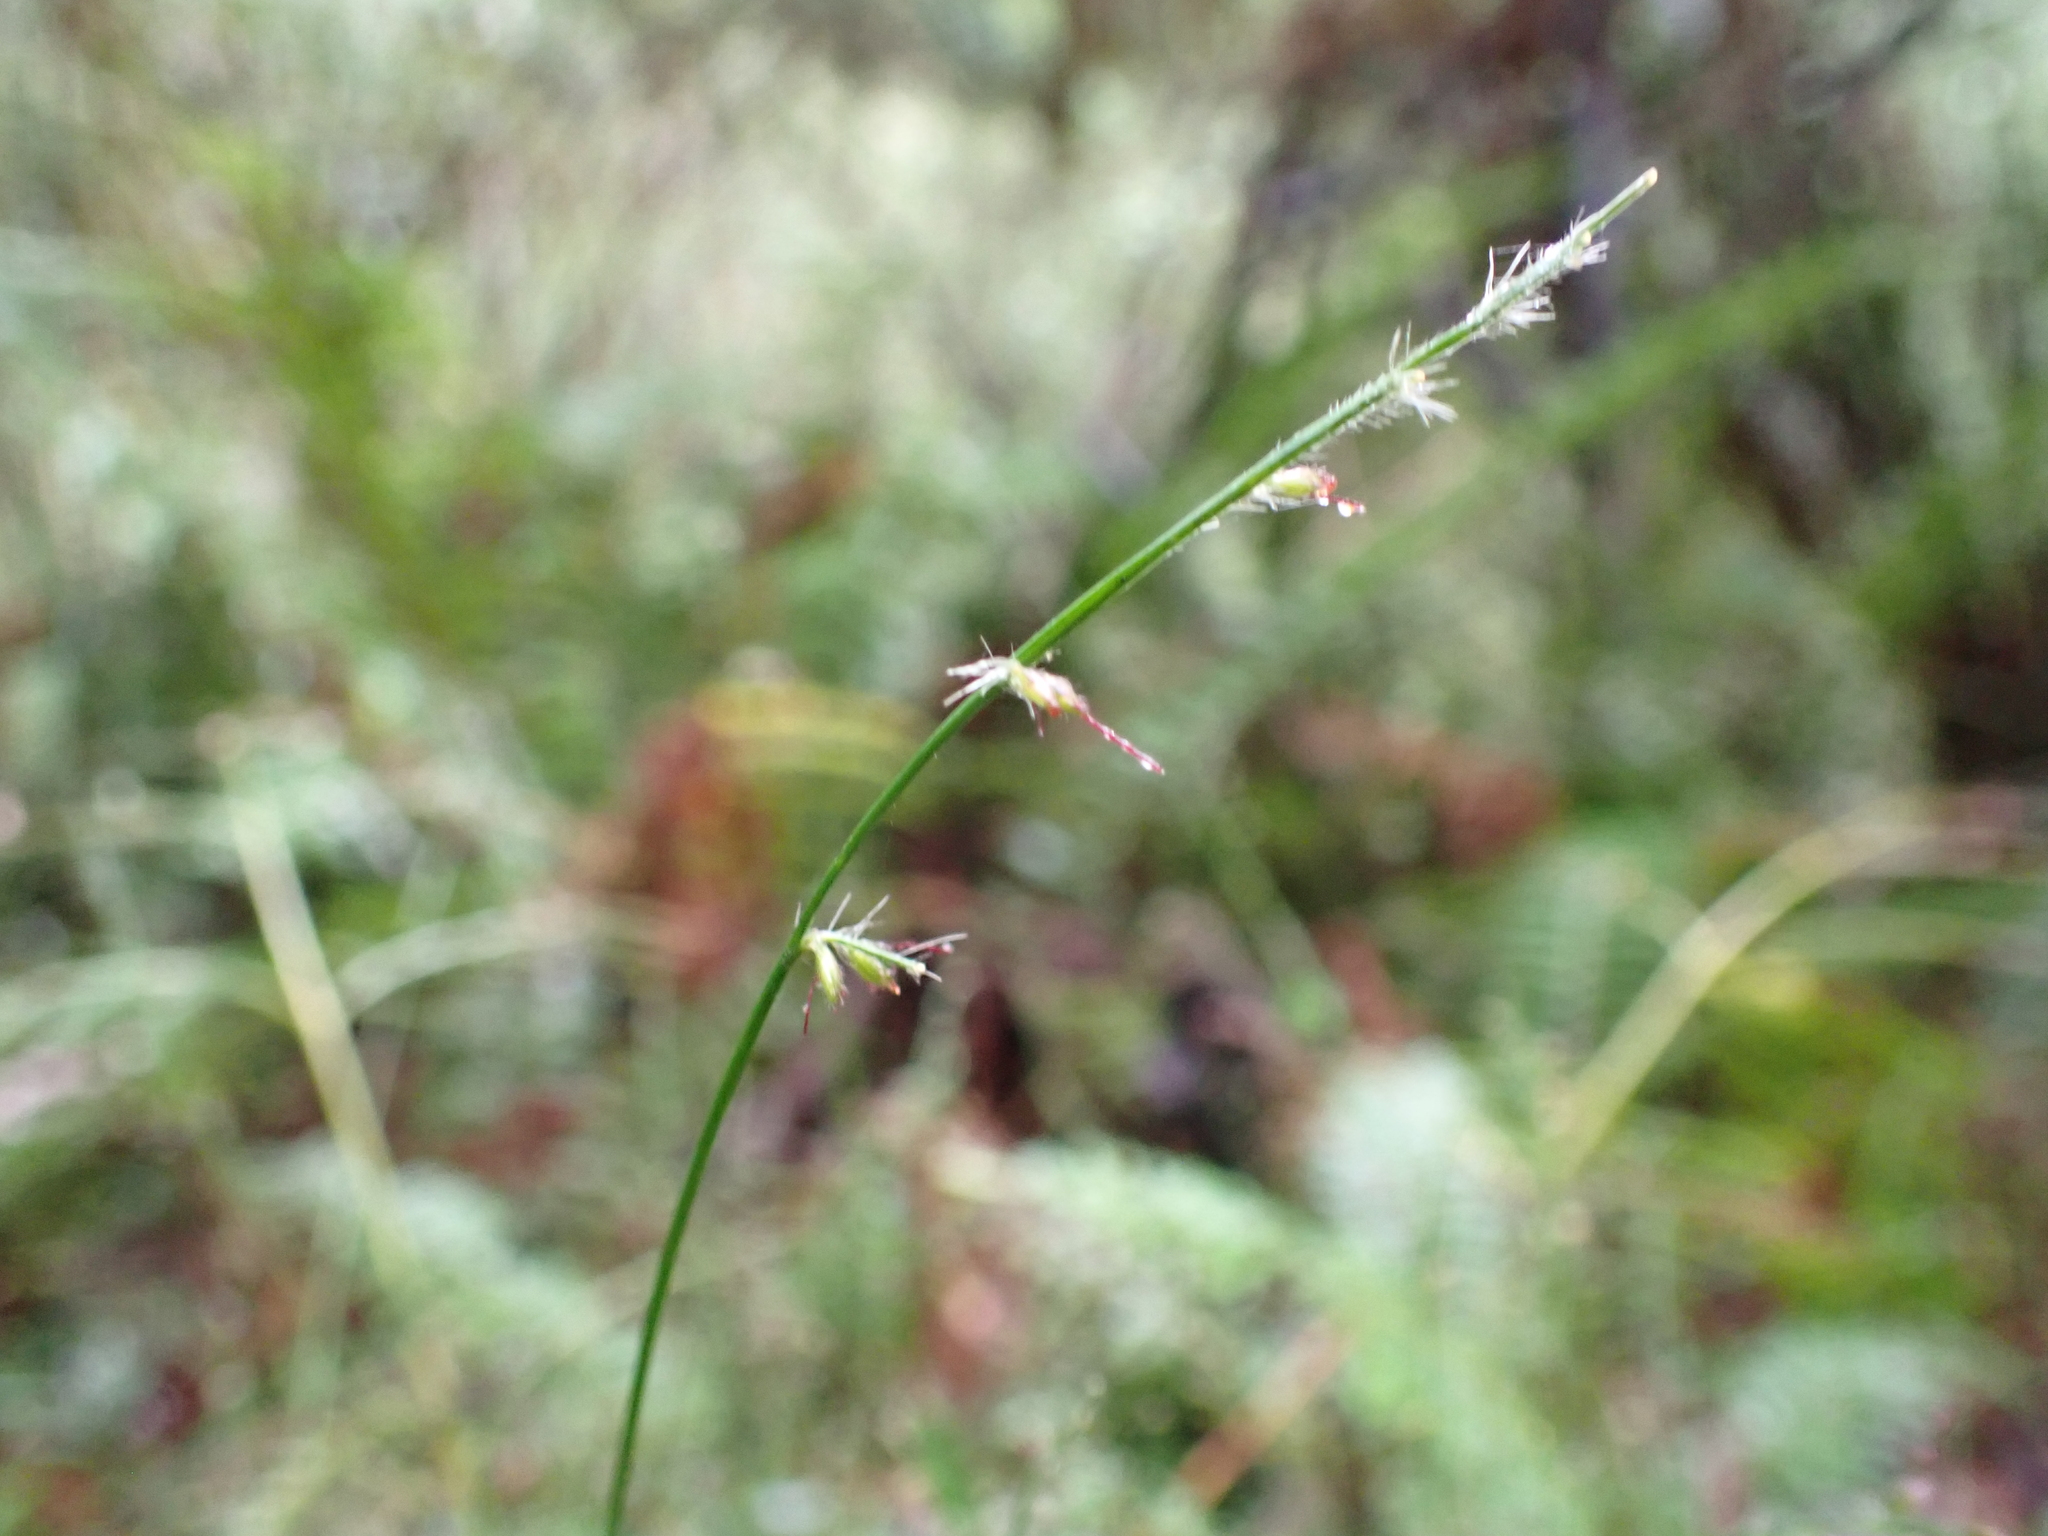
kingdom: Plantae
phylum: Tracheophyta
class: Liliopsida
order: Poales
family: Poaceae
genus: Oplismenus
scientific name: Oplismenus hirtellus
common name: Basketgrass
